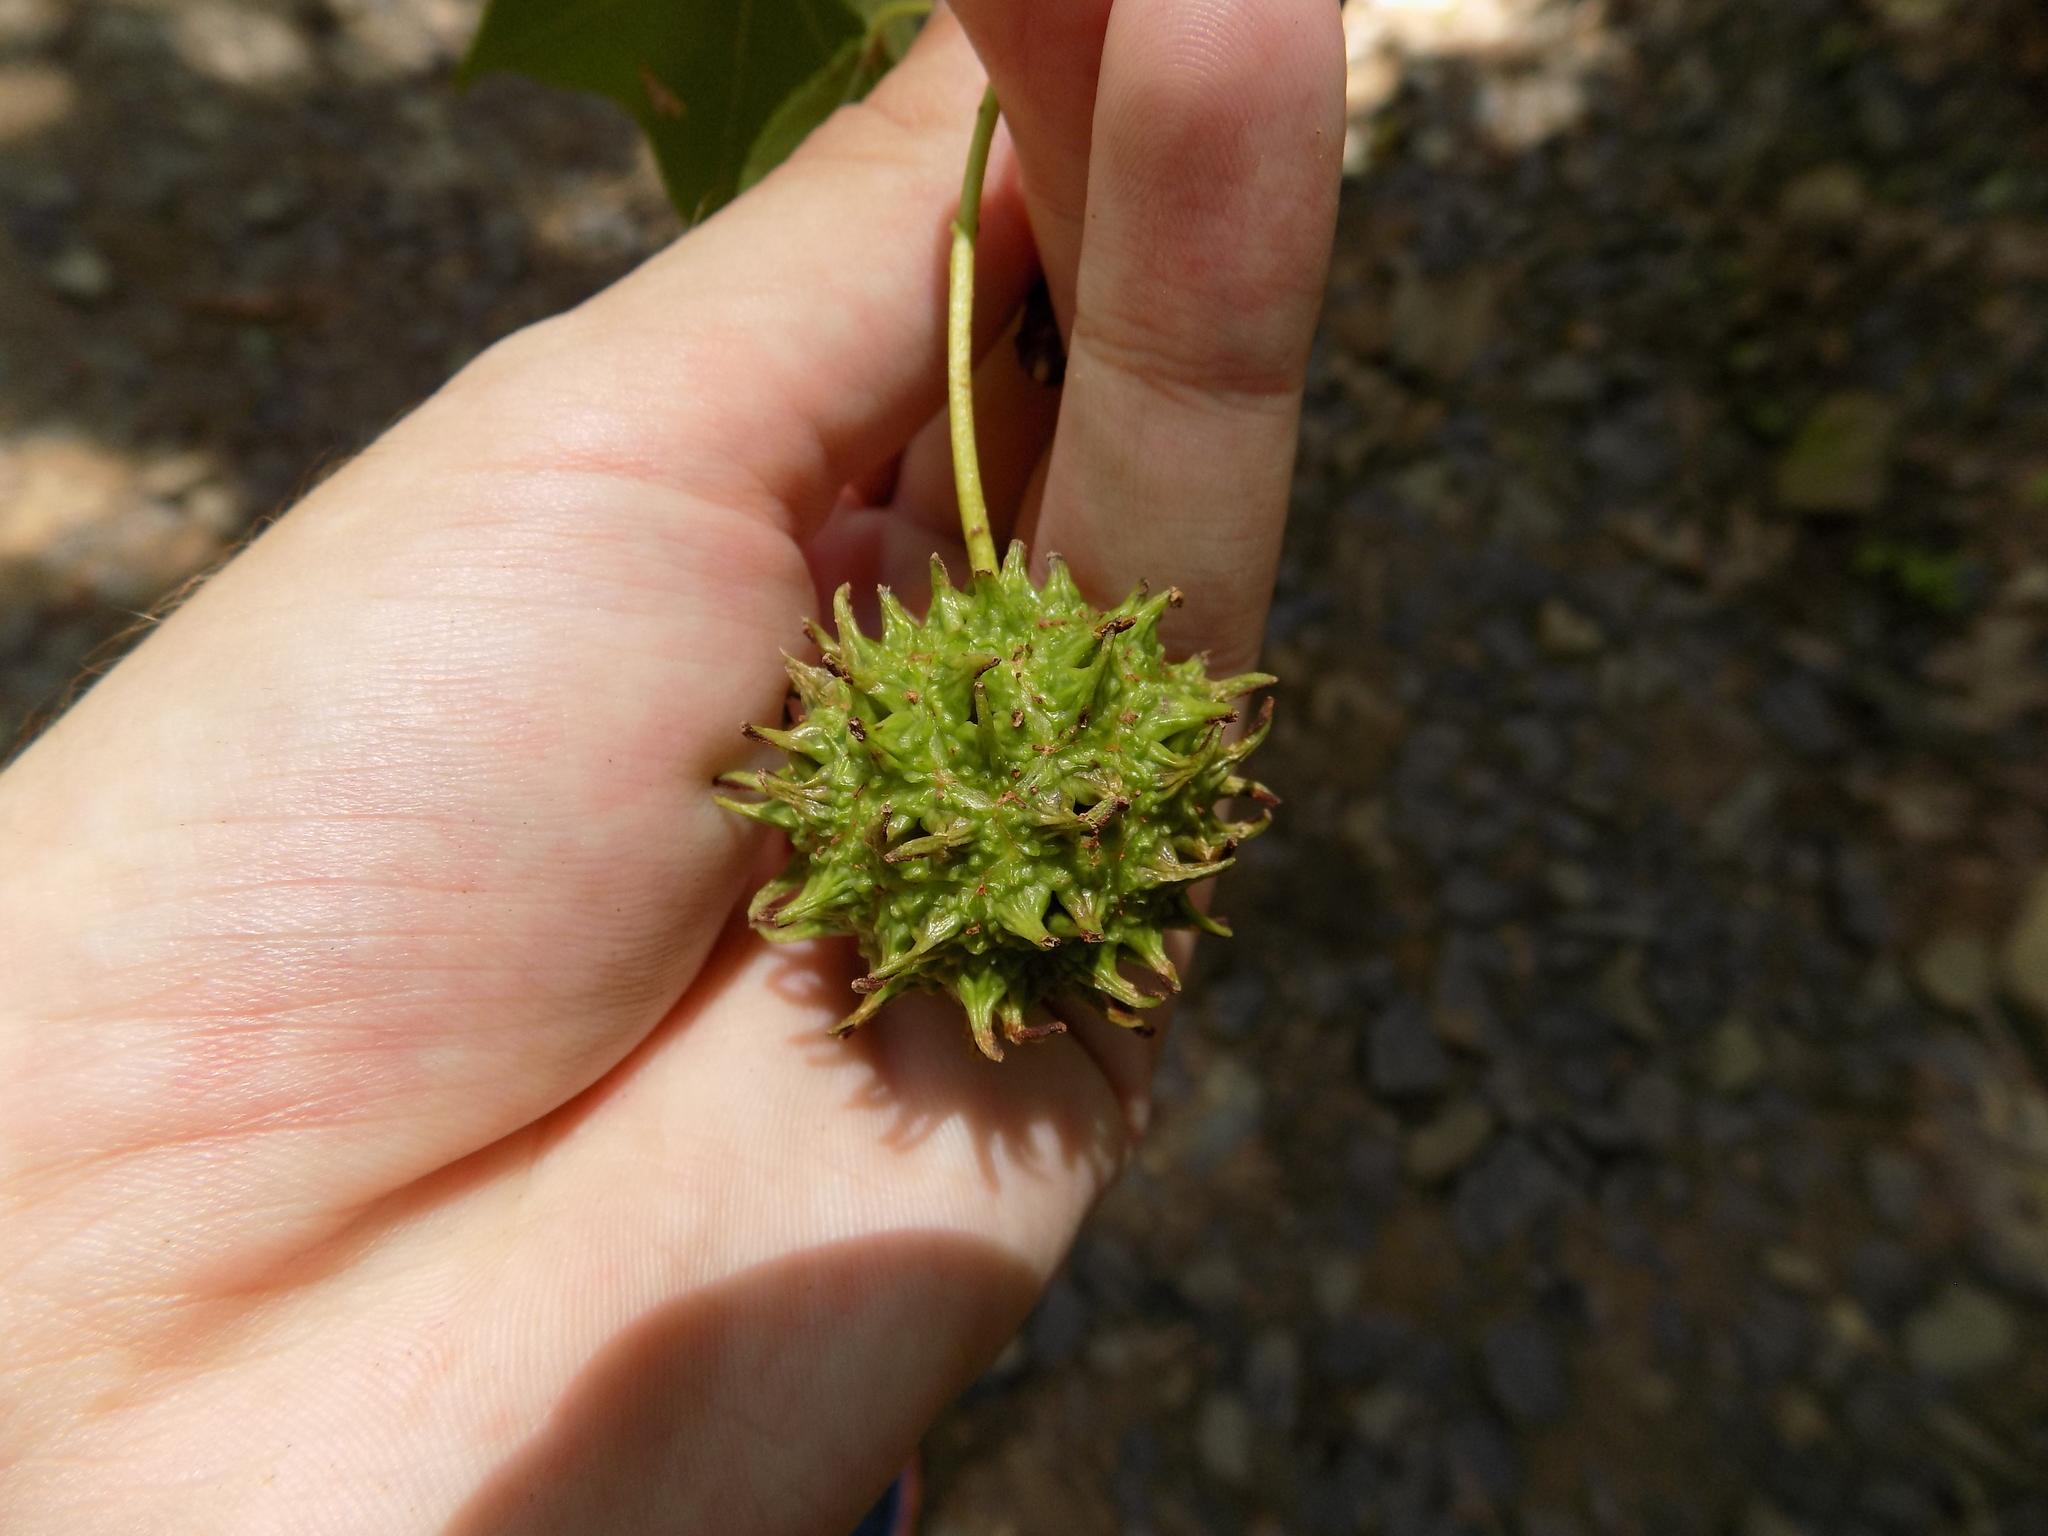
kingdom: Plantae
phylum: Tracheophyta
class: Magnoliopsida
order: Saxifragales
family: Altingiaceae
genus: Liquidambar
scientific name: Liquidambar styraciflua
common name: Sweet gum
